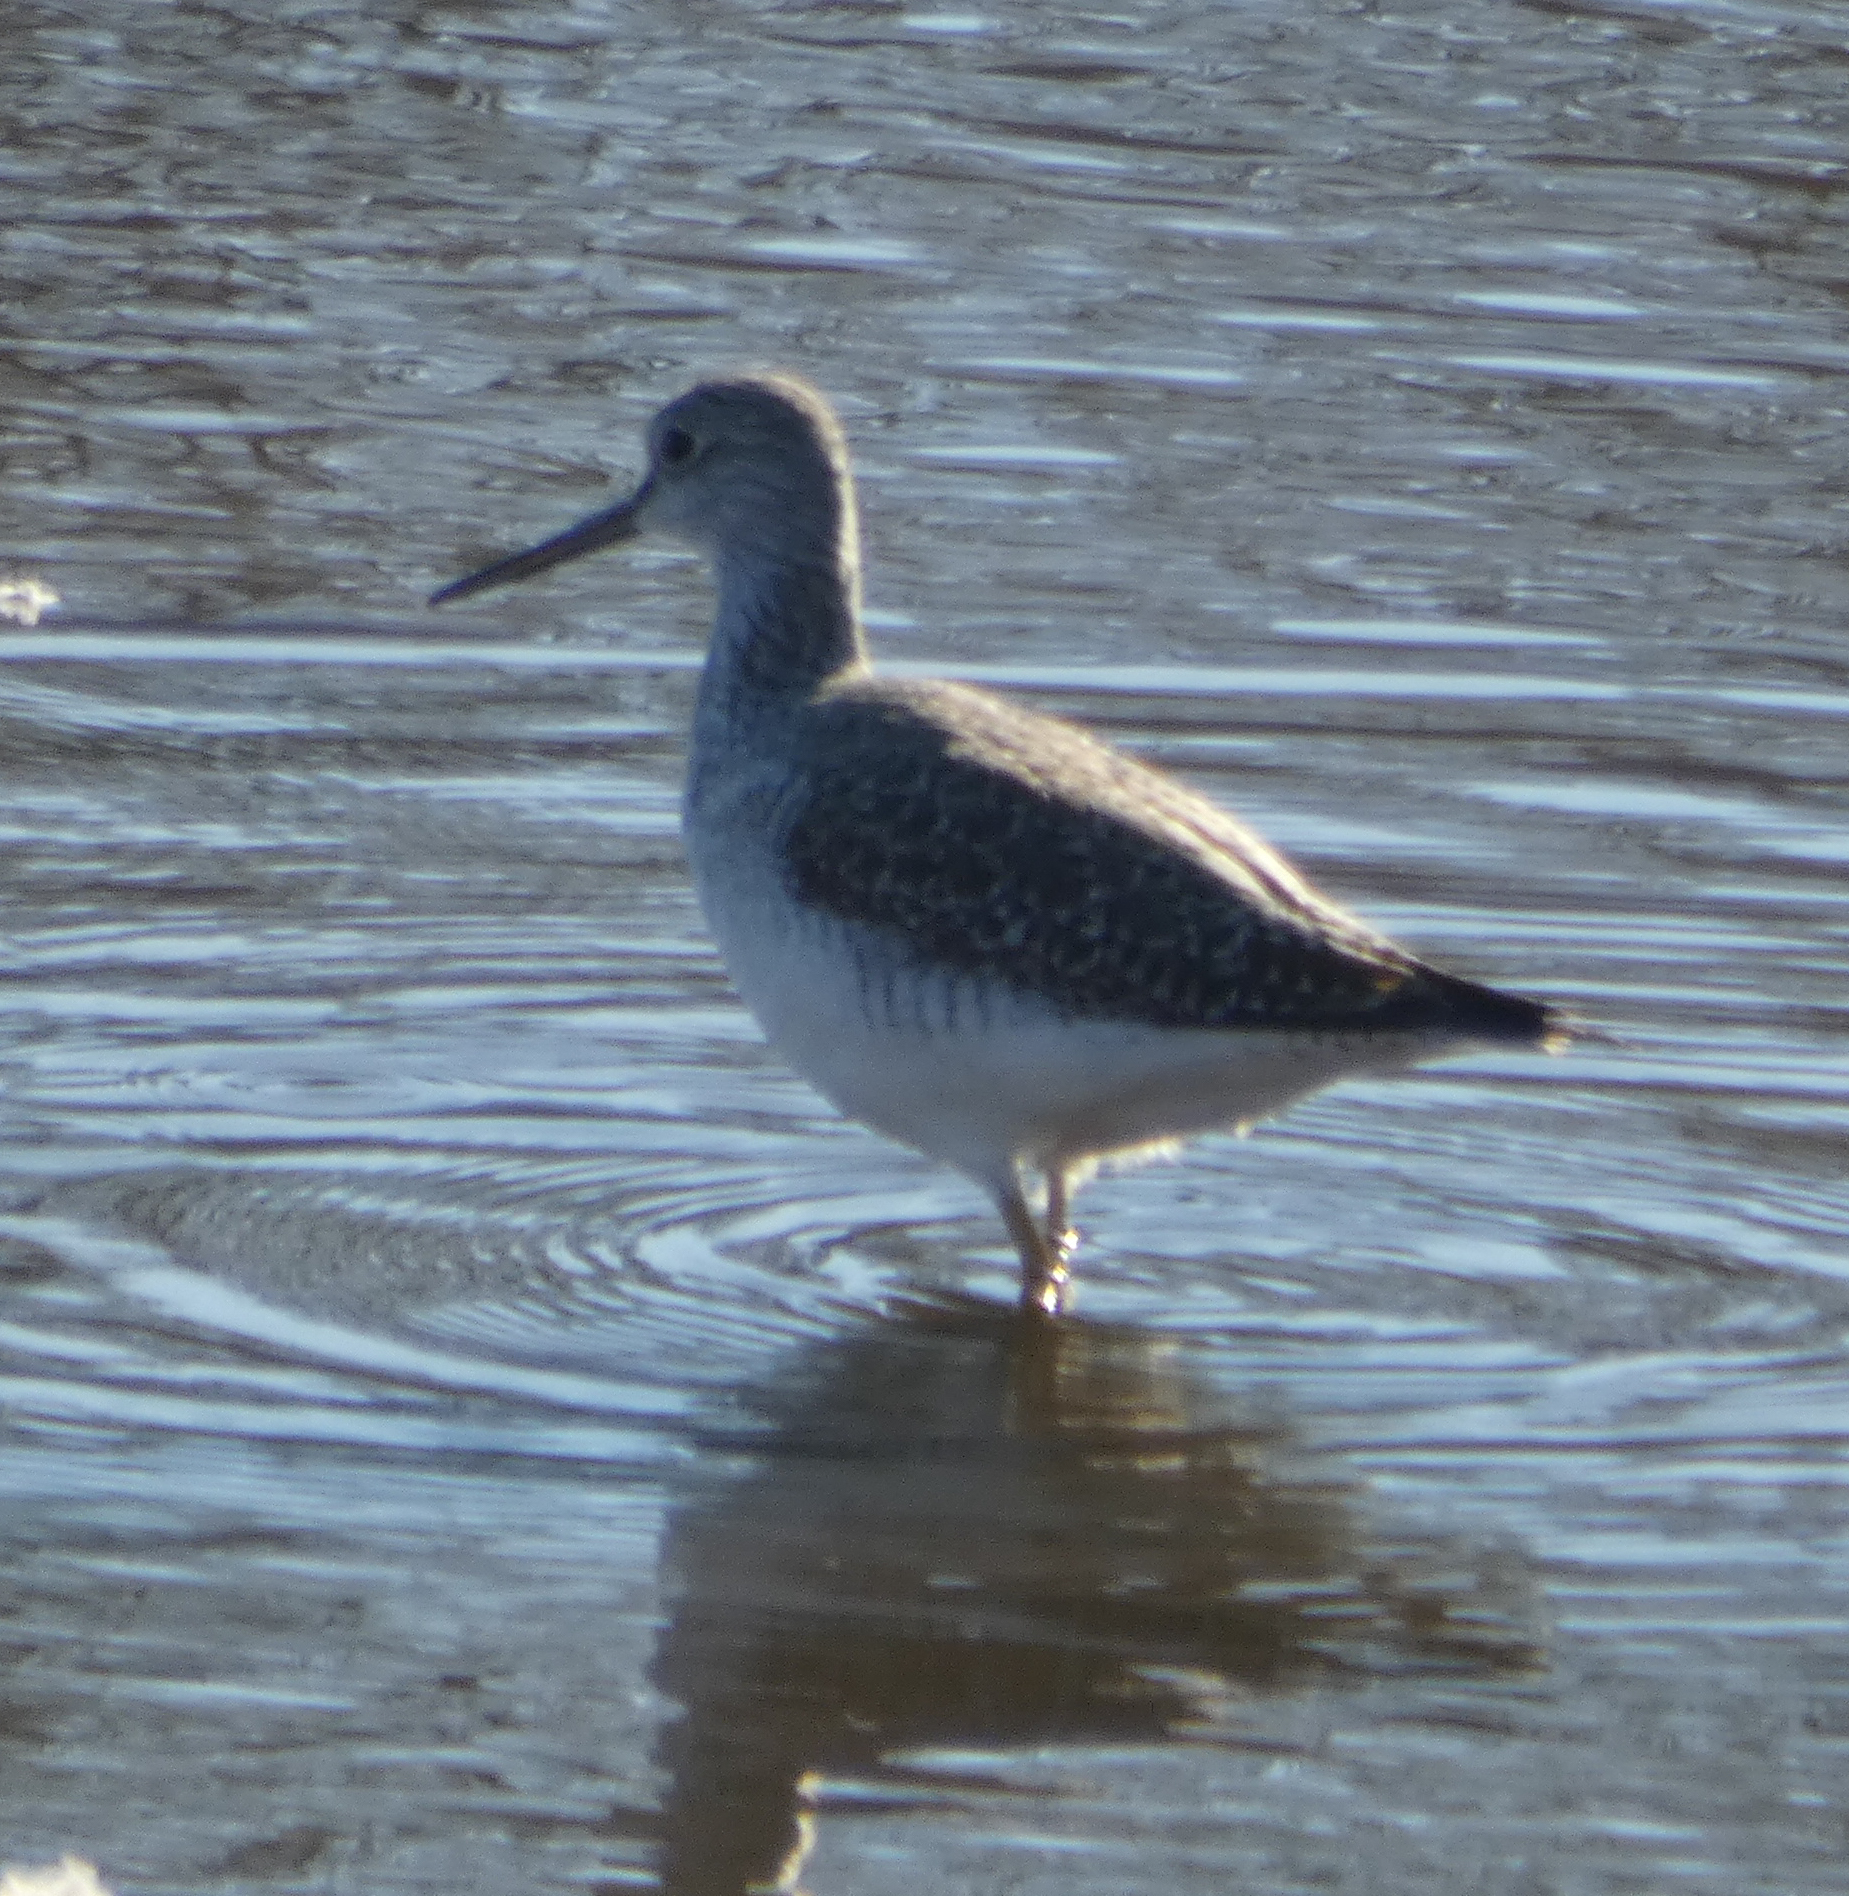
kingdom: Animalia
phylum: Chordata
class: Aves
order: Charadriiformes
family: Scolopacidae
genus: Tringa
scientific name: Tringa melanoleuca
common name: Greater yellowlegs
